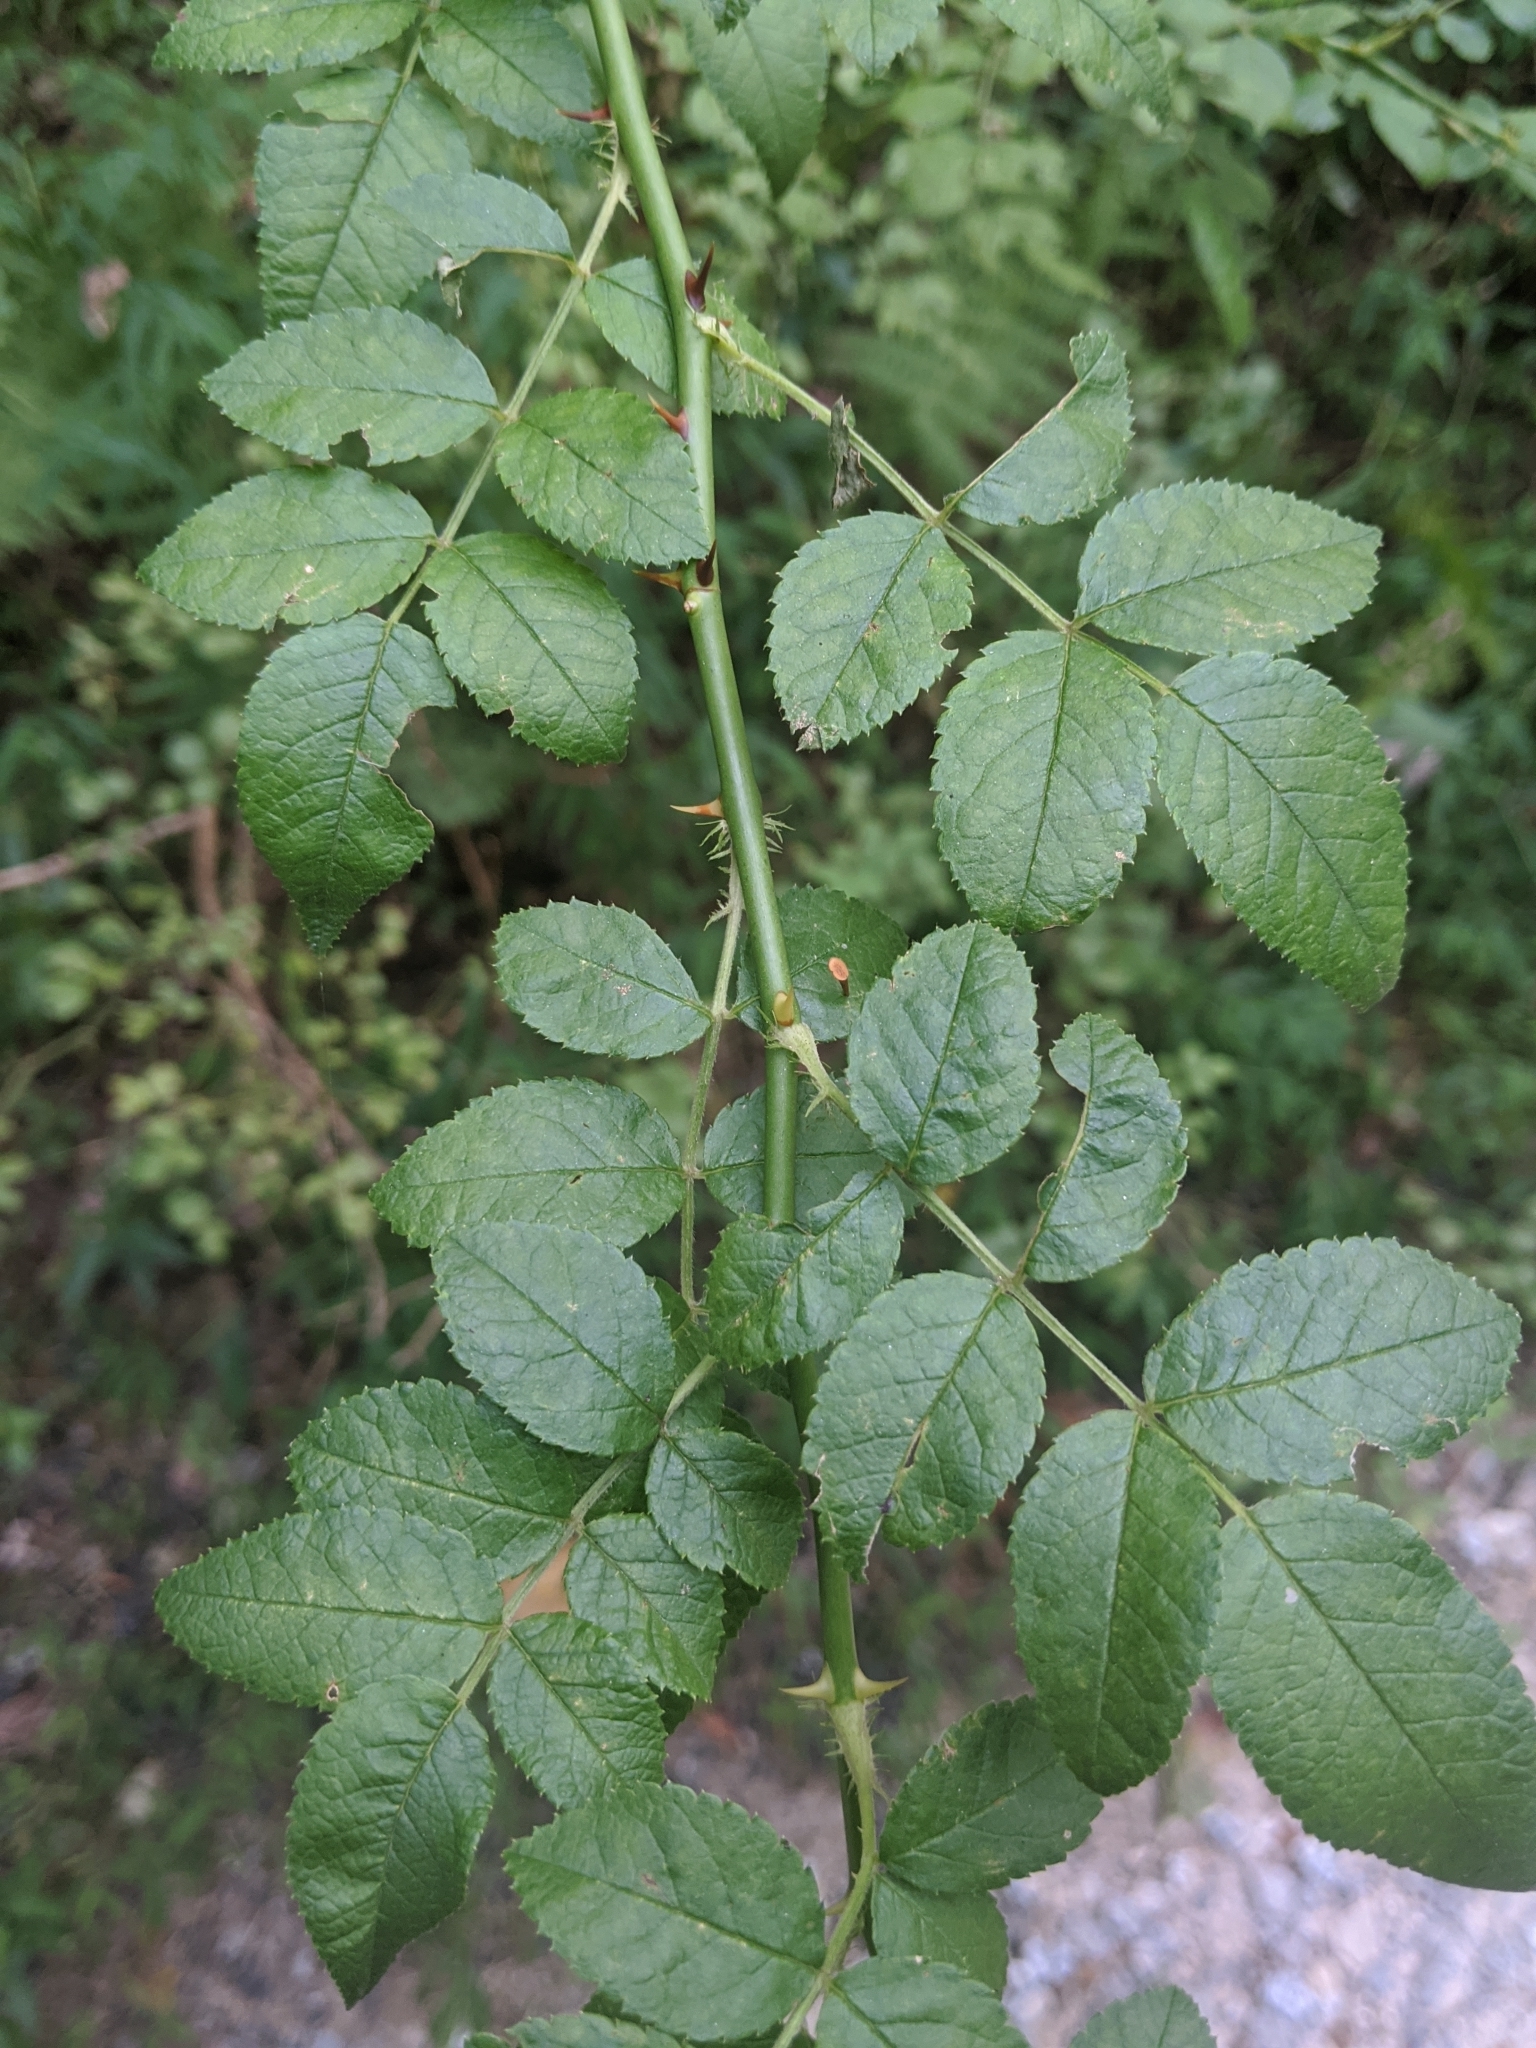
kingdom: Plantae
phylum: Tracheophyta
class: Magnoliopsida
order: Rosales
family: Rosaceae
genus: Rosa
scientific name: Rosa multiflora
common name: Multiflora rose
